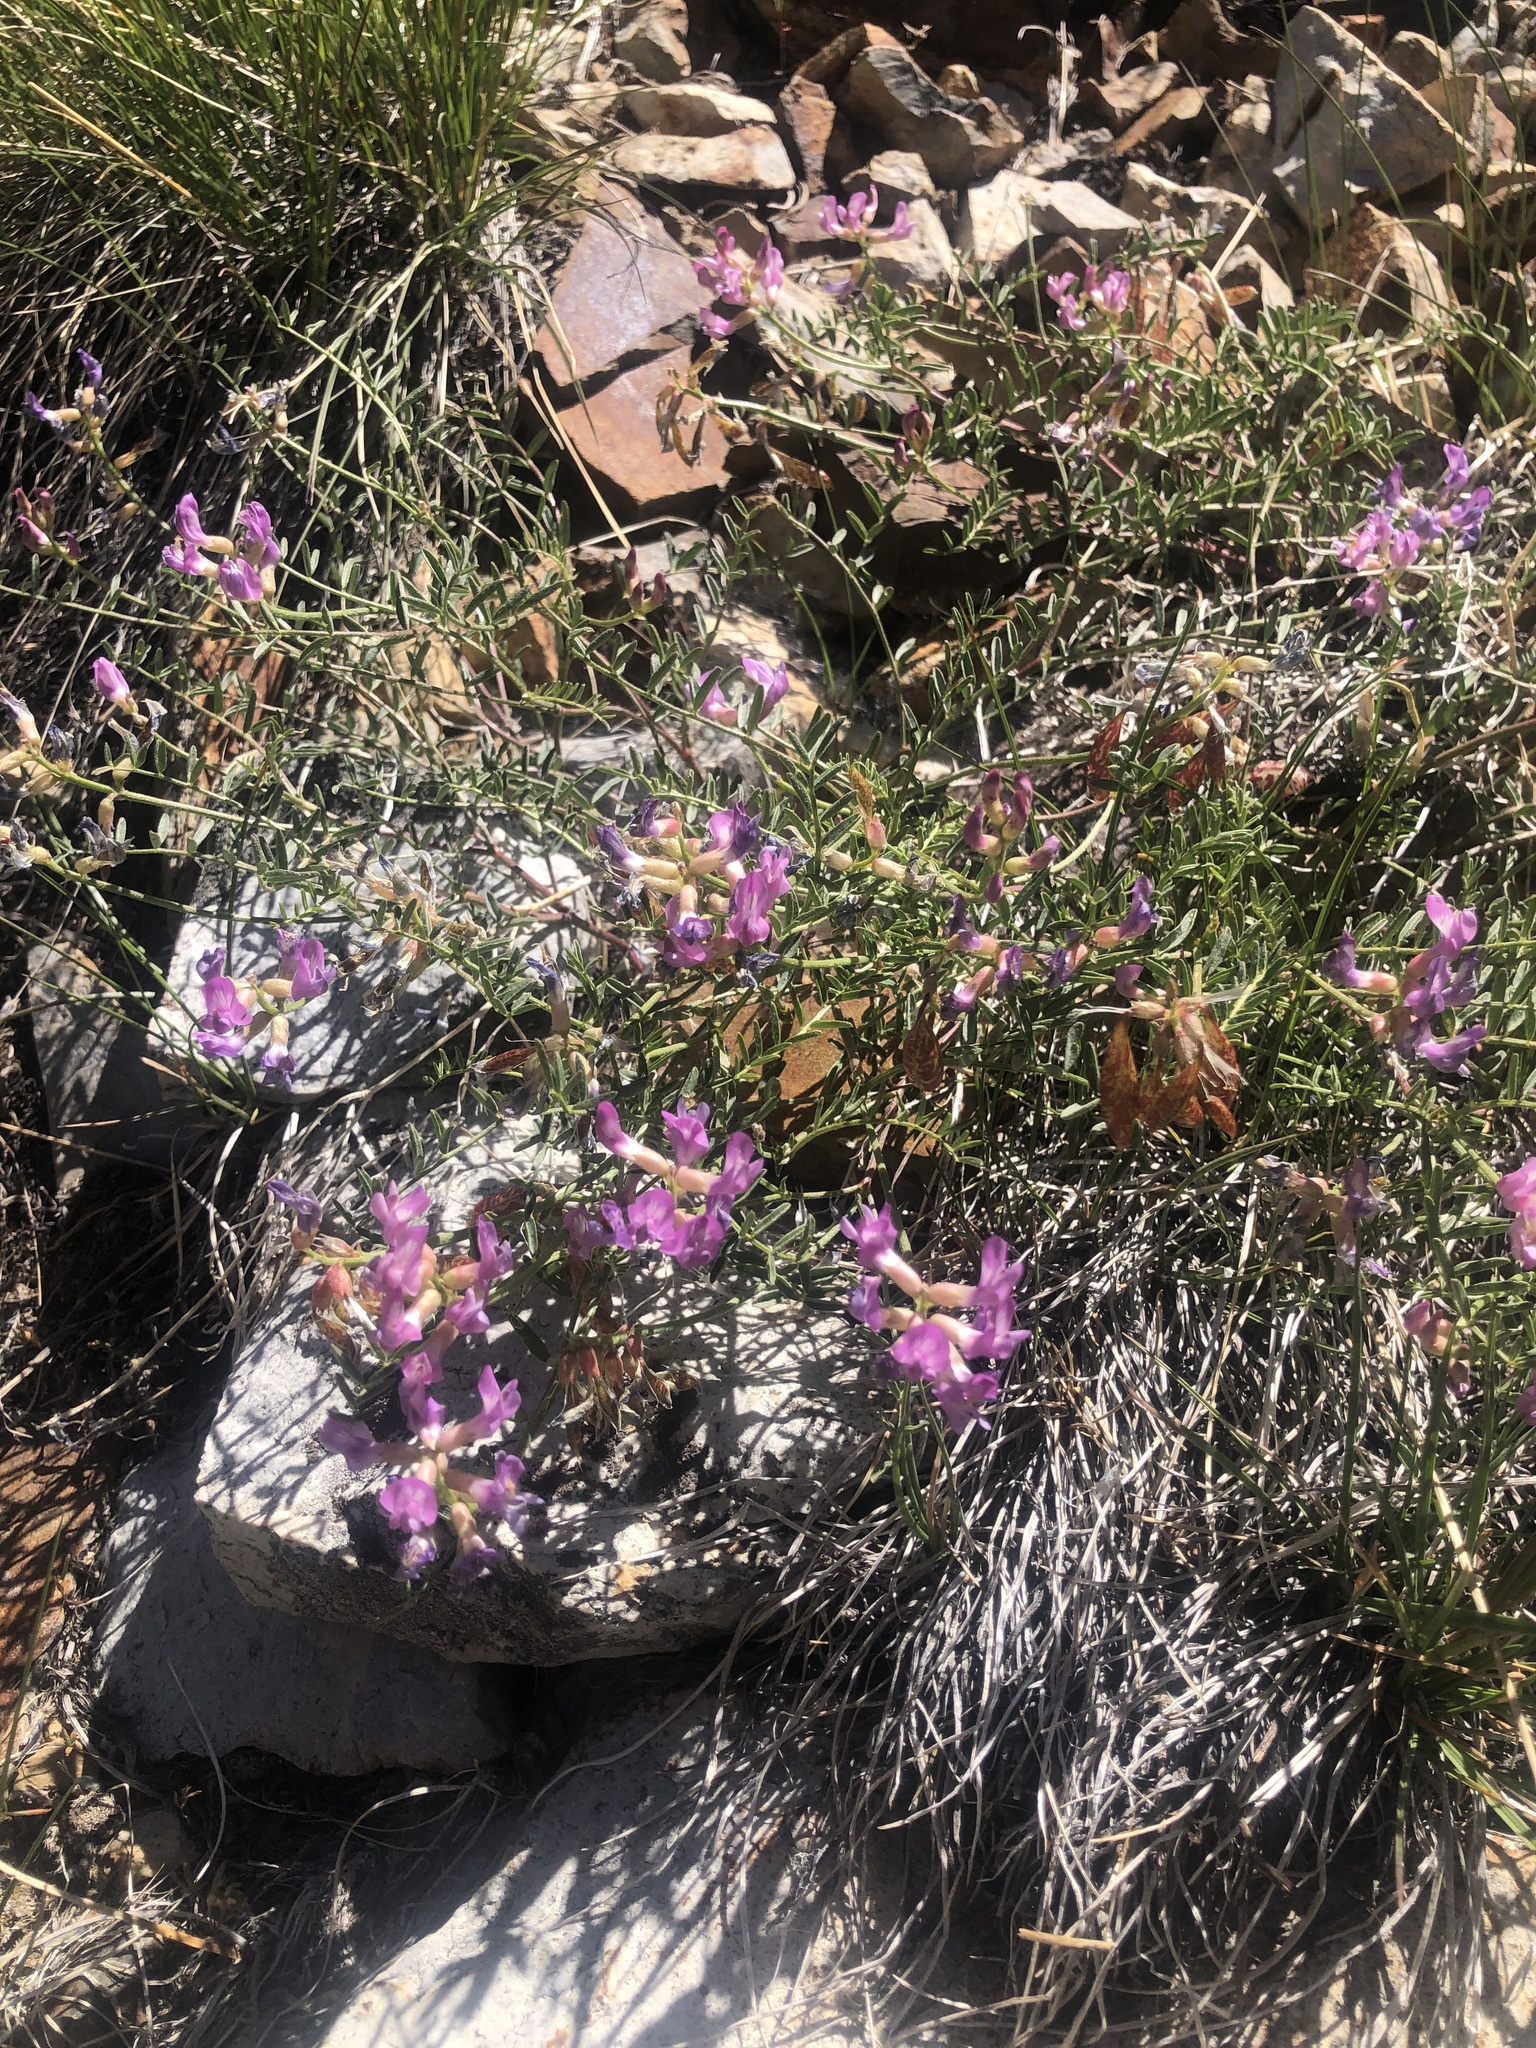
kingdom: Plantae
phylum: Tracheophyta
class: Magnoliopsida
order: Fabales
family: Fabaceae
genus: Astragalus
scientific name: Astragalus whitneyi
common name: Balloonpod milkvetch
